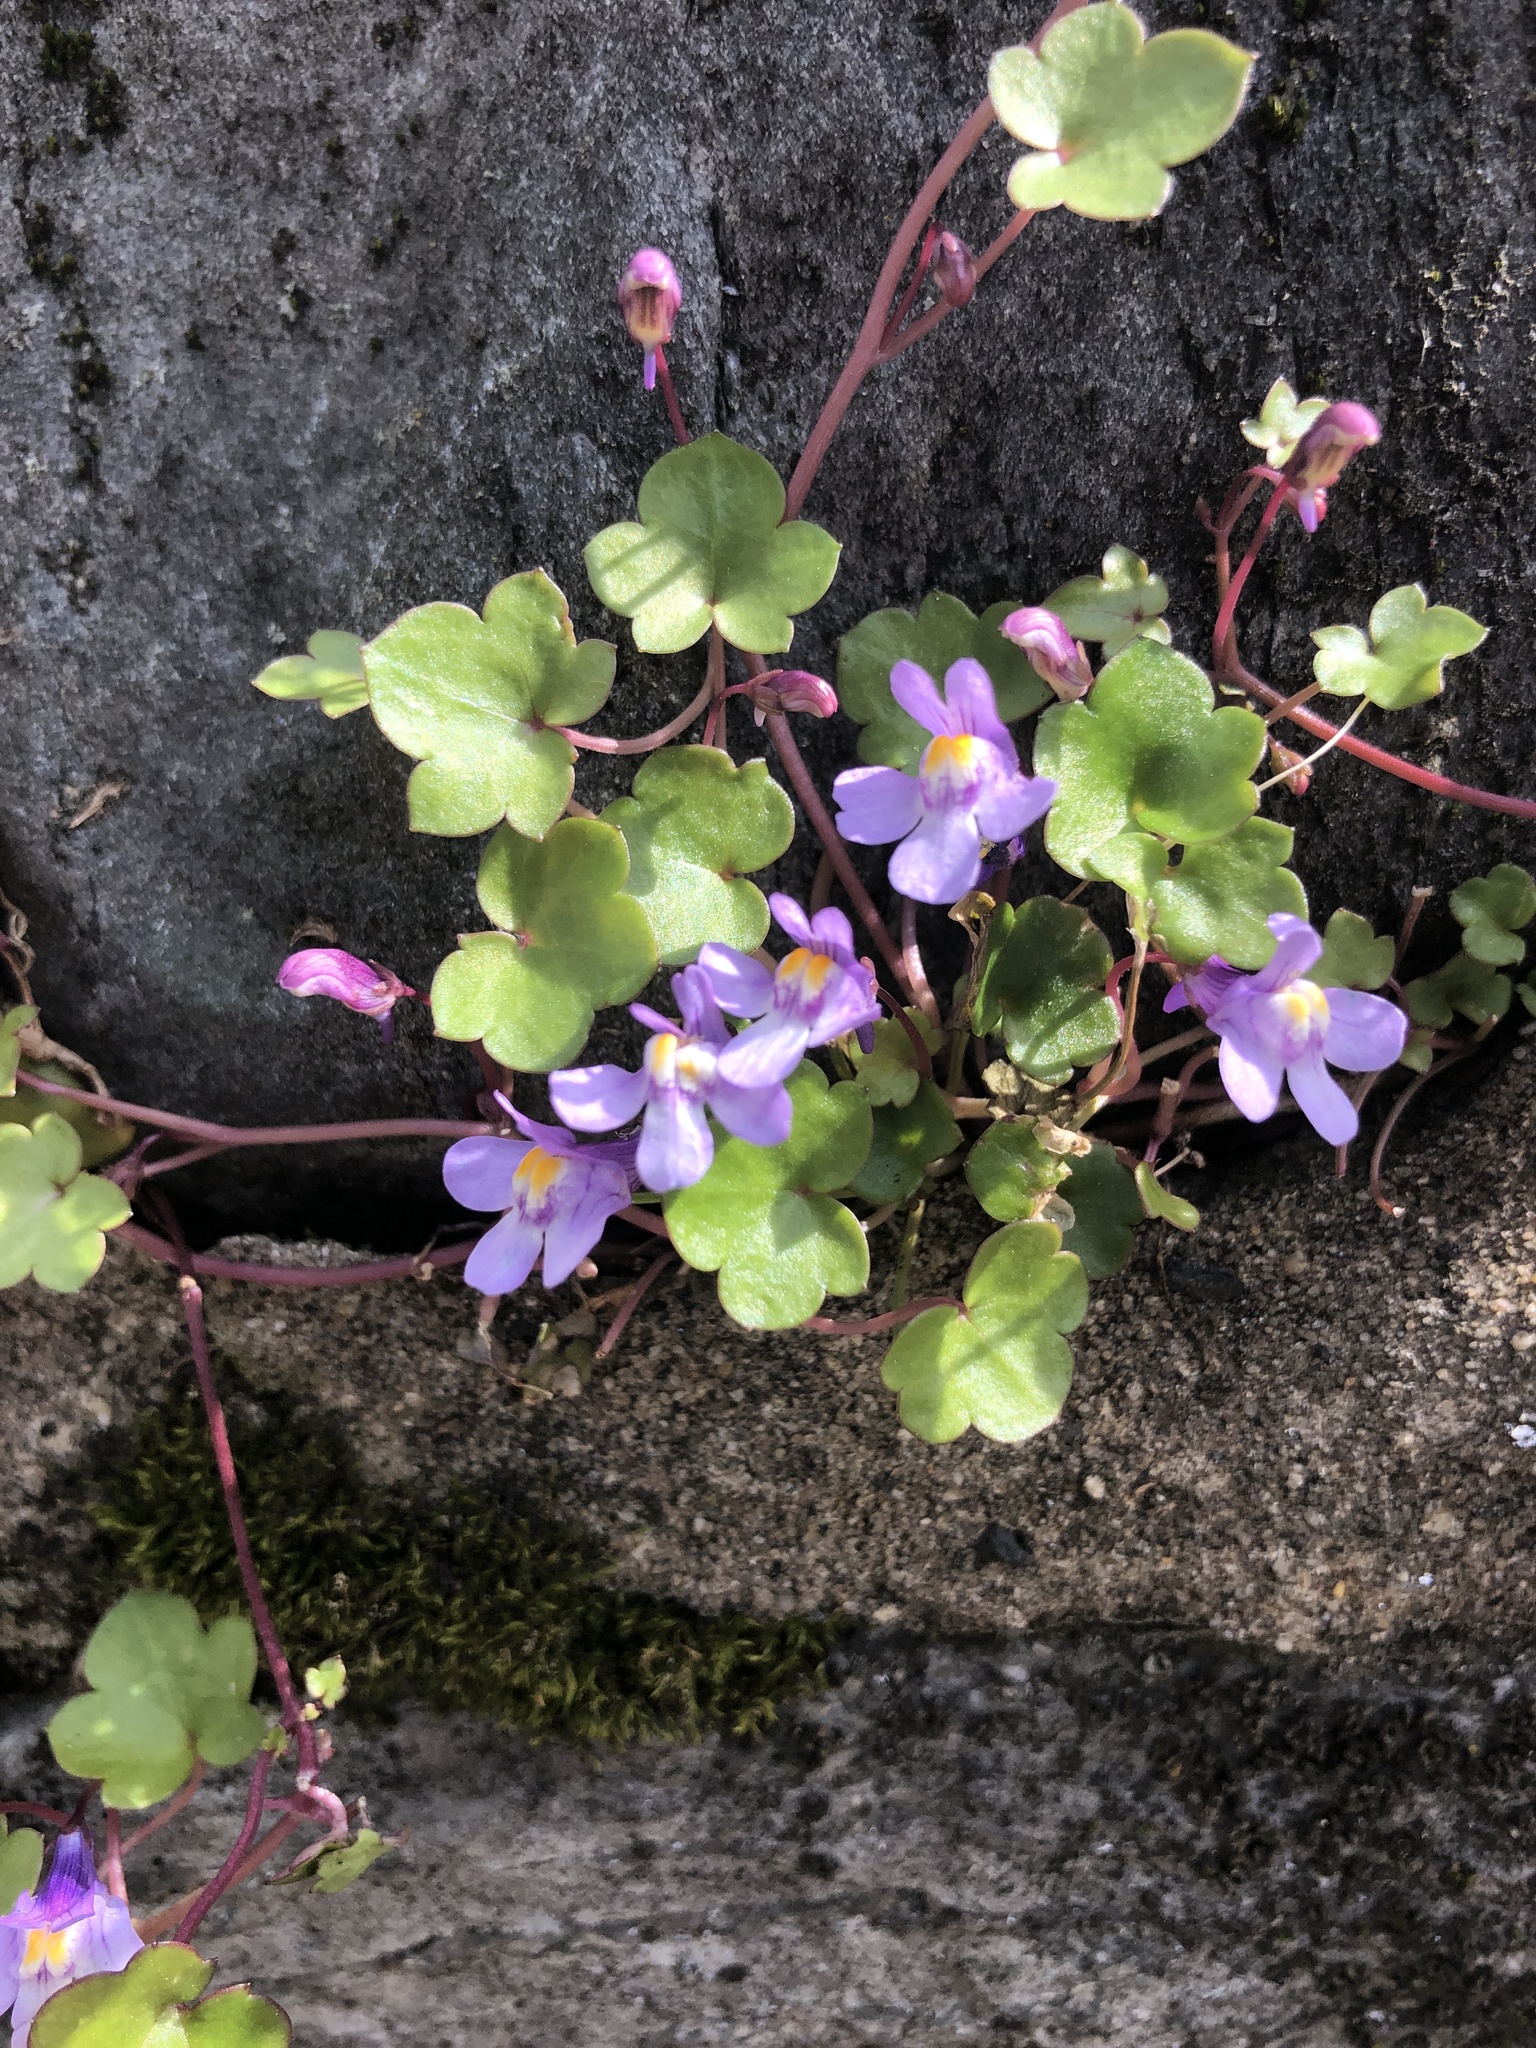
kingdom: Plantae
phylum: Tracheophyta
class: Magnoliopsida
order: Lamiales
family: Plantaginaceae
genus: Cymbalaria
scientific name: Cymbalaria muralis
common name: Ivy-leaved toadflax
